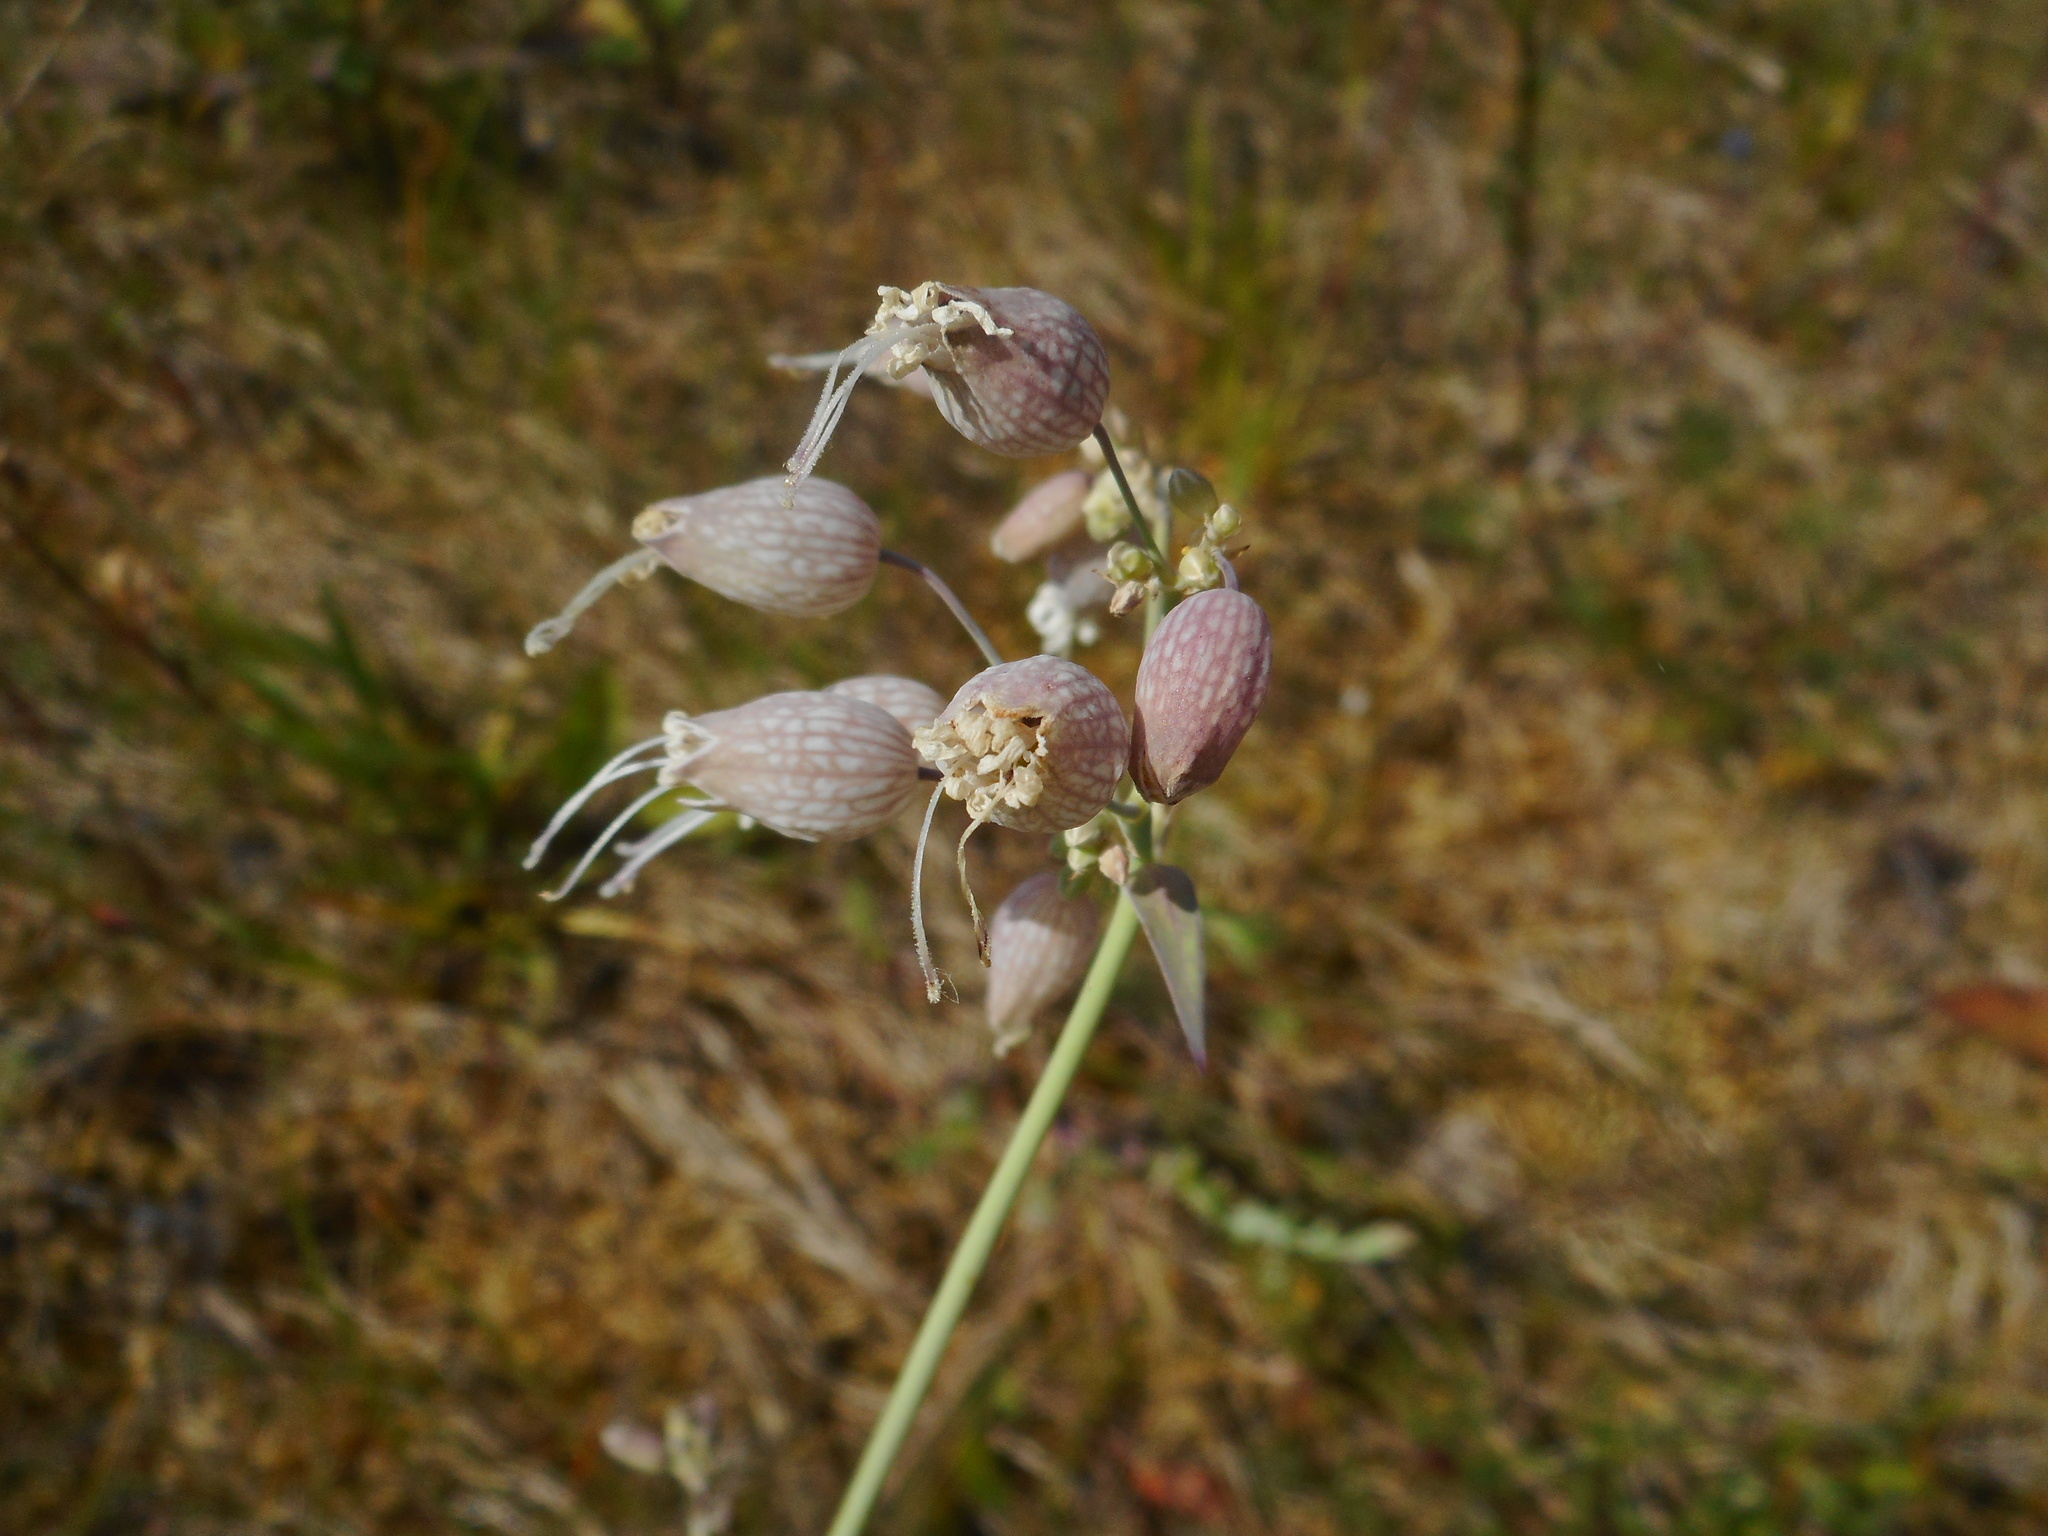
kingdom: Plantae
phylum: Tracheophyta
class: Magnoliopsida
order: Caryophyllales
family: Caryophyllaceae
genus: Silene
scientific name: Silene vulgaris
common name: Bladder campion
